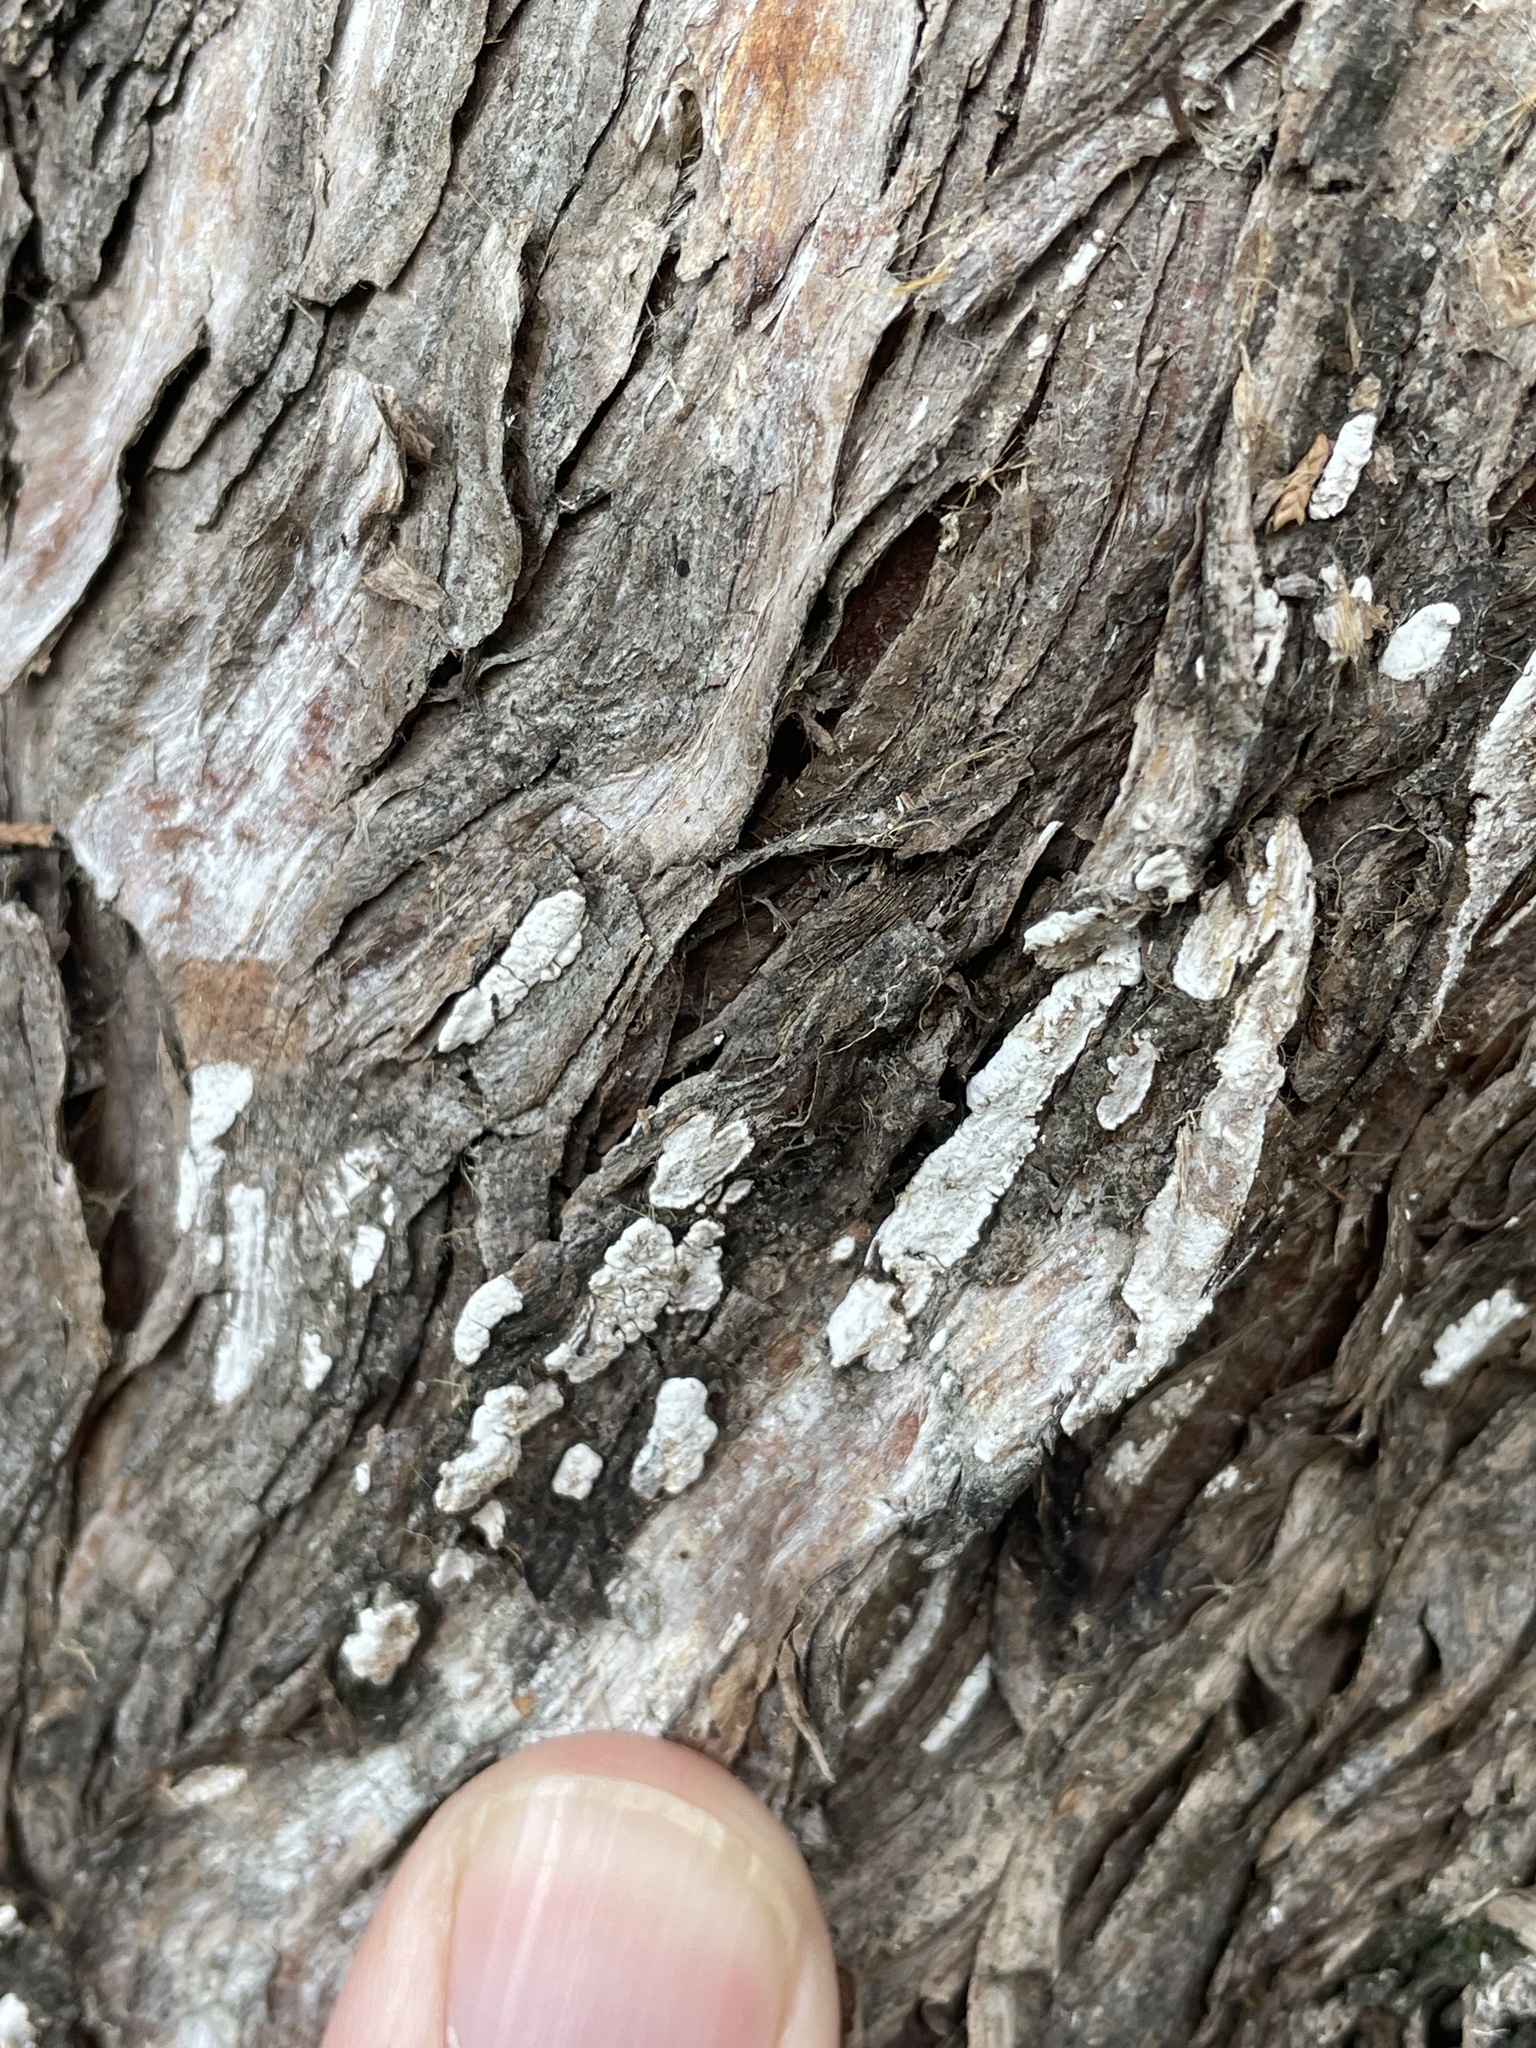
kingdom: Fungi
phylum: Basidiomycota
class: Agaricomycetes
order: Agaricales
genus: Dendrothele
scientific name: Dendrothele nivosa
